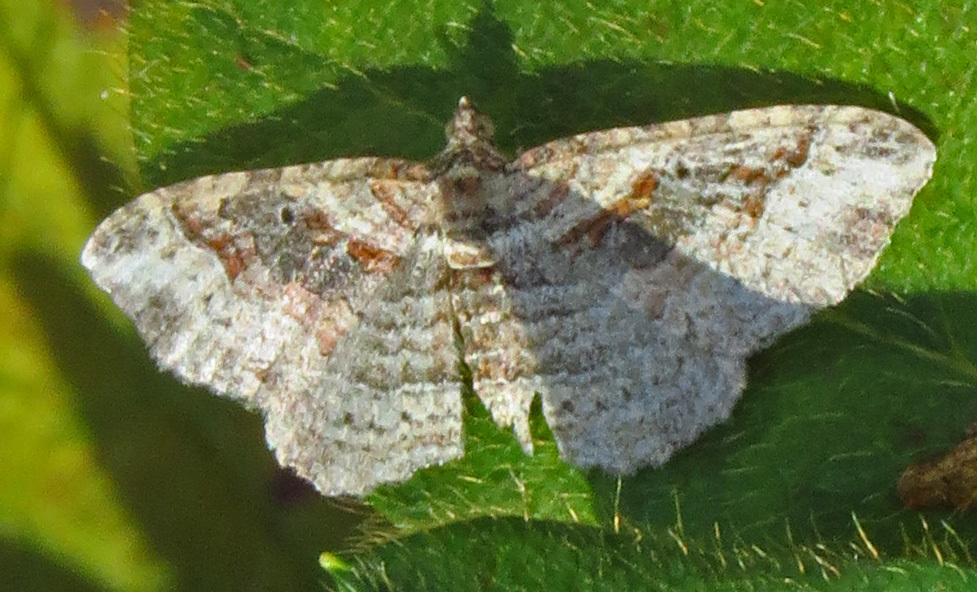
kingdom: Animalia
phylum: Arthropoda
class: Insecta
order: Lepidoptera
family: Geometridae
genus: Costaconvexa
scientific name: Costaconvexa centrostrigaria
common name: Bent-line carpet
